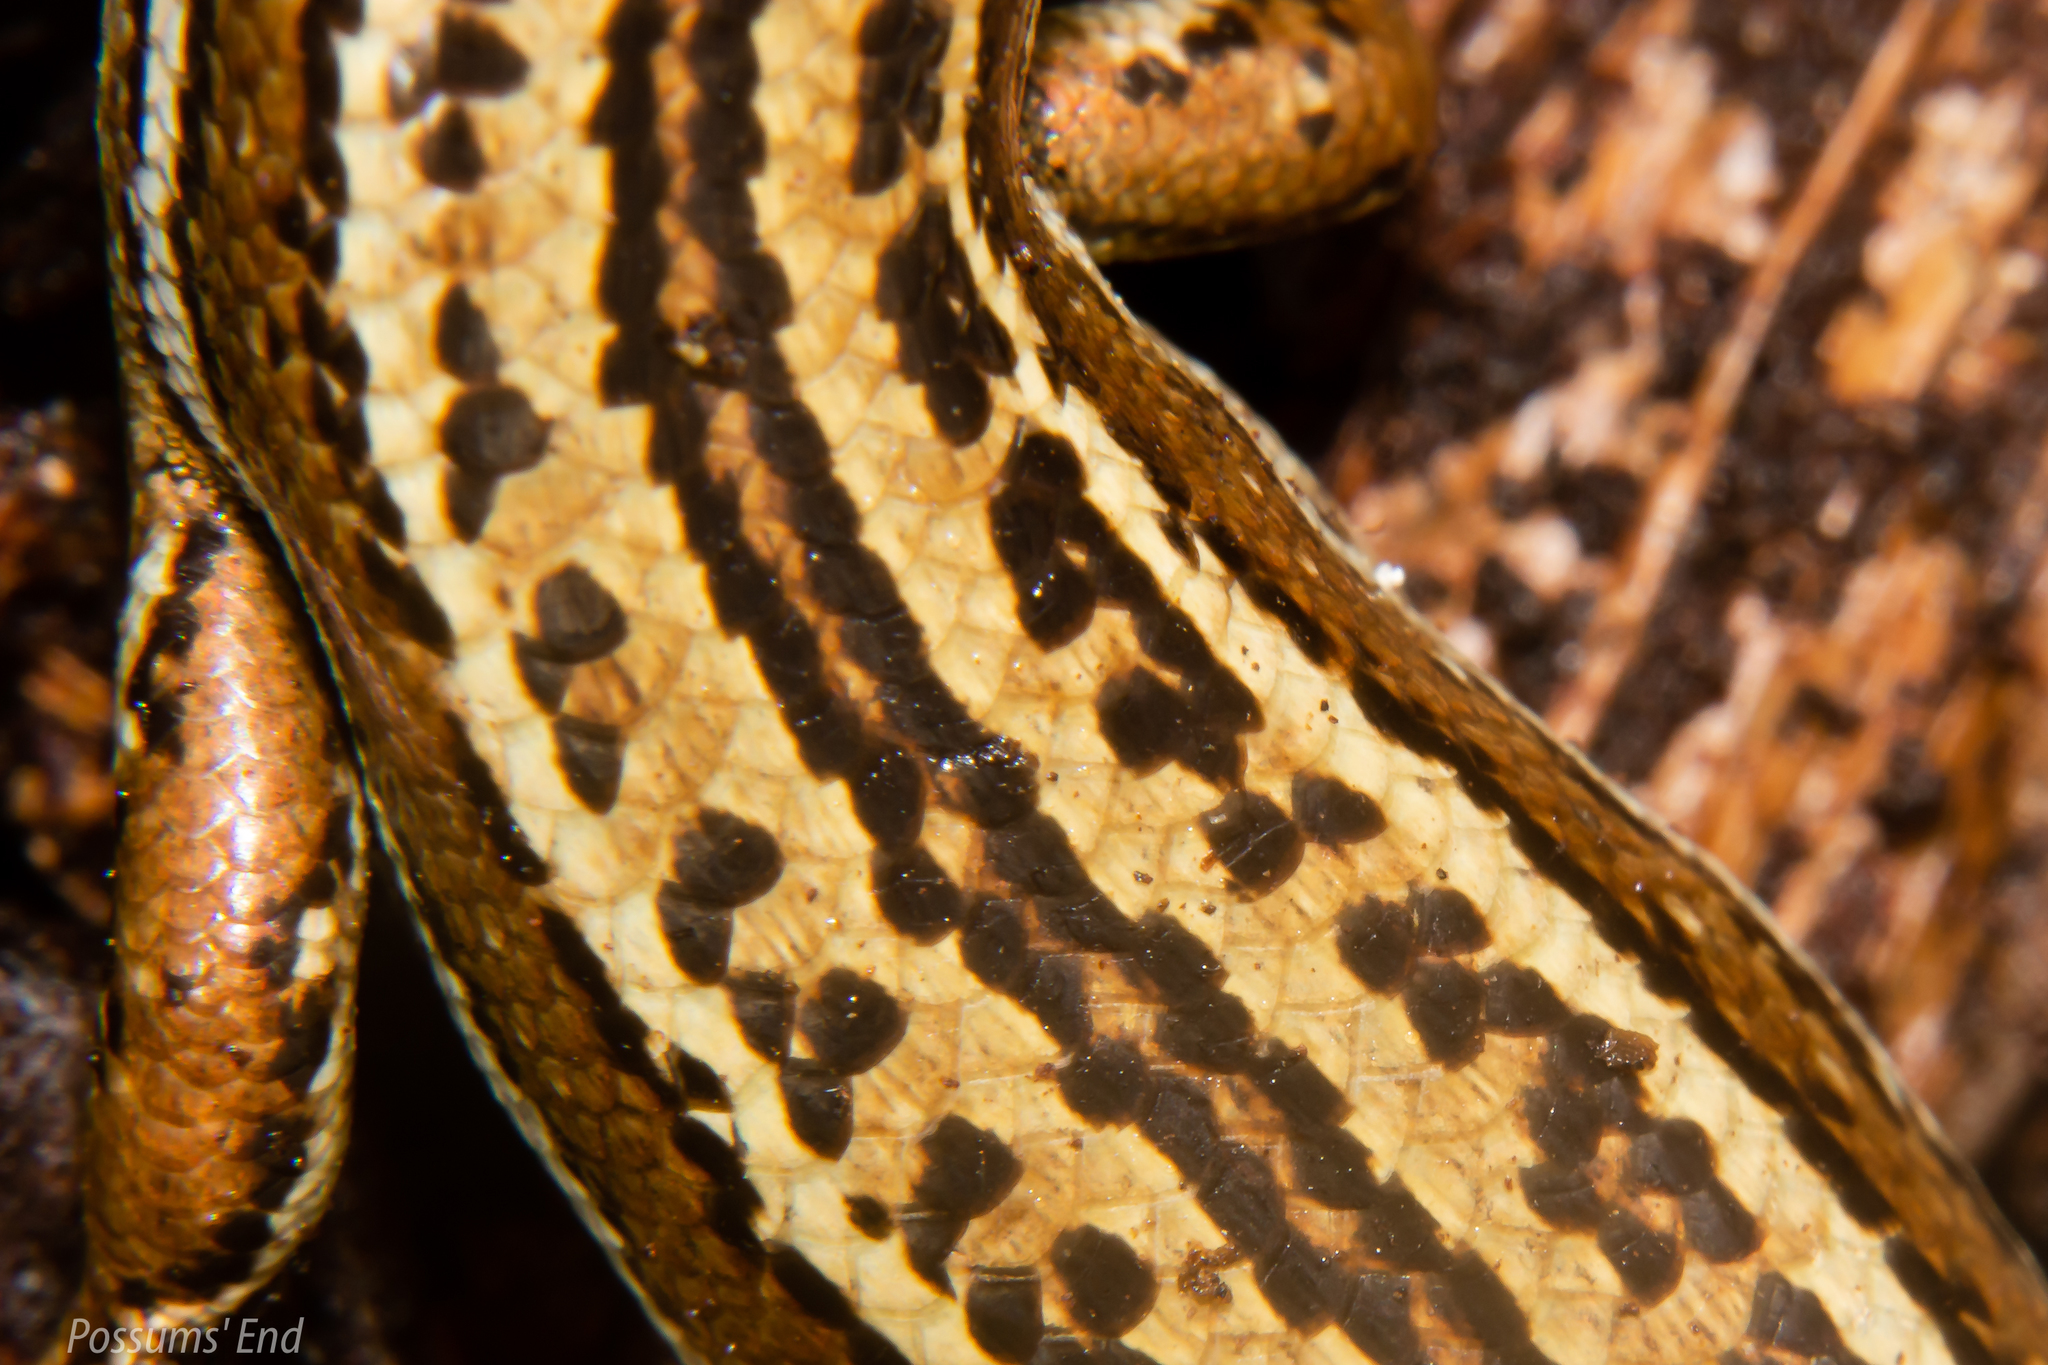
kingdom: Animalia
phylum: Chordata
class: Squamata
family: Scincidae
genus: Oligosoma
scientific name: Oligosoma inconspicuum
